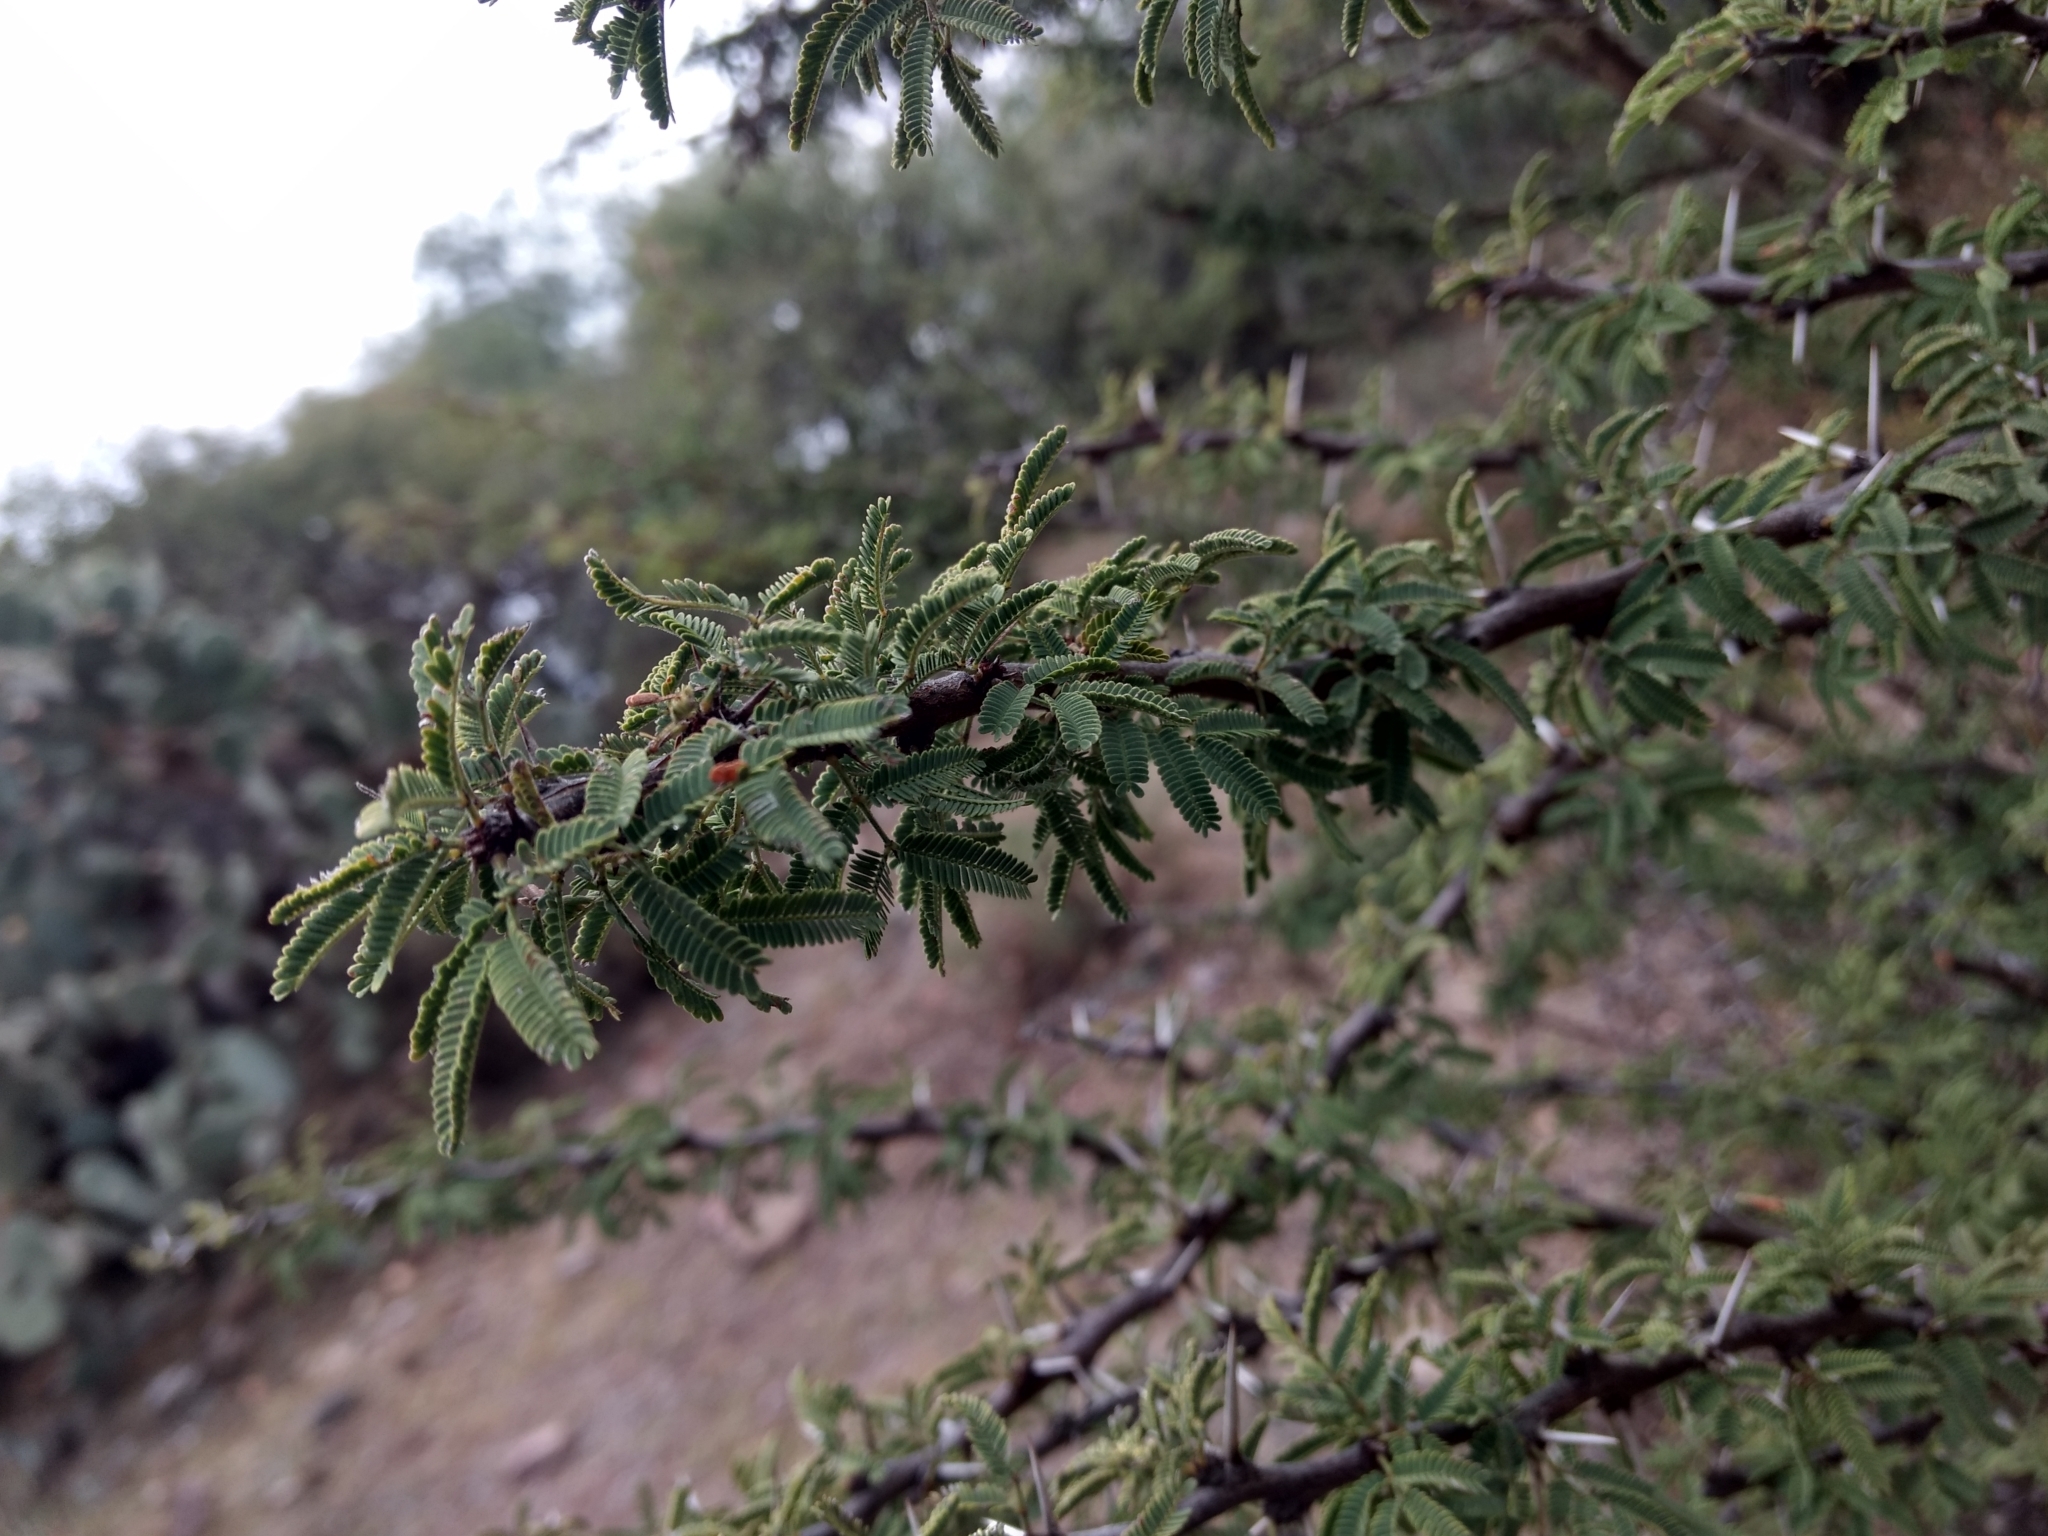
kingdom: Plantae
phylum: Tracheophyta
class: Magnoliopsida
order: Fabales
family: Fabaceae
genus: Vachellia
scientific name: Vachellia schaffneri
